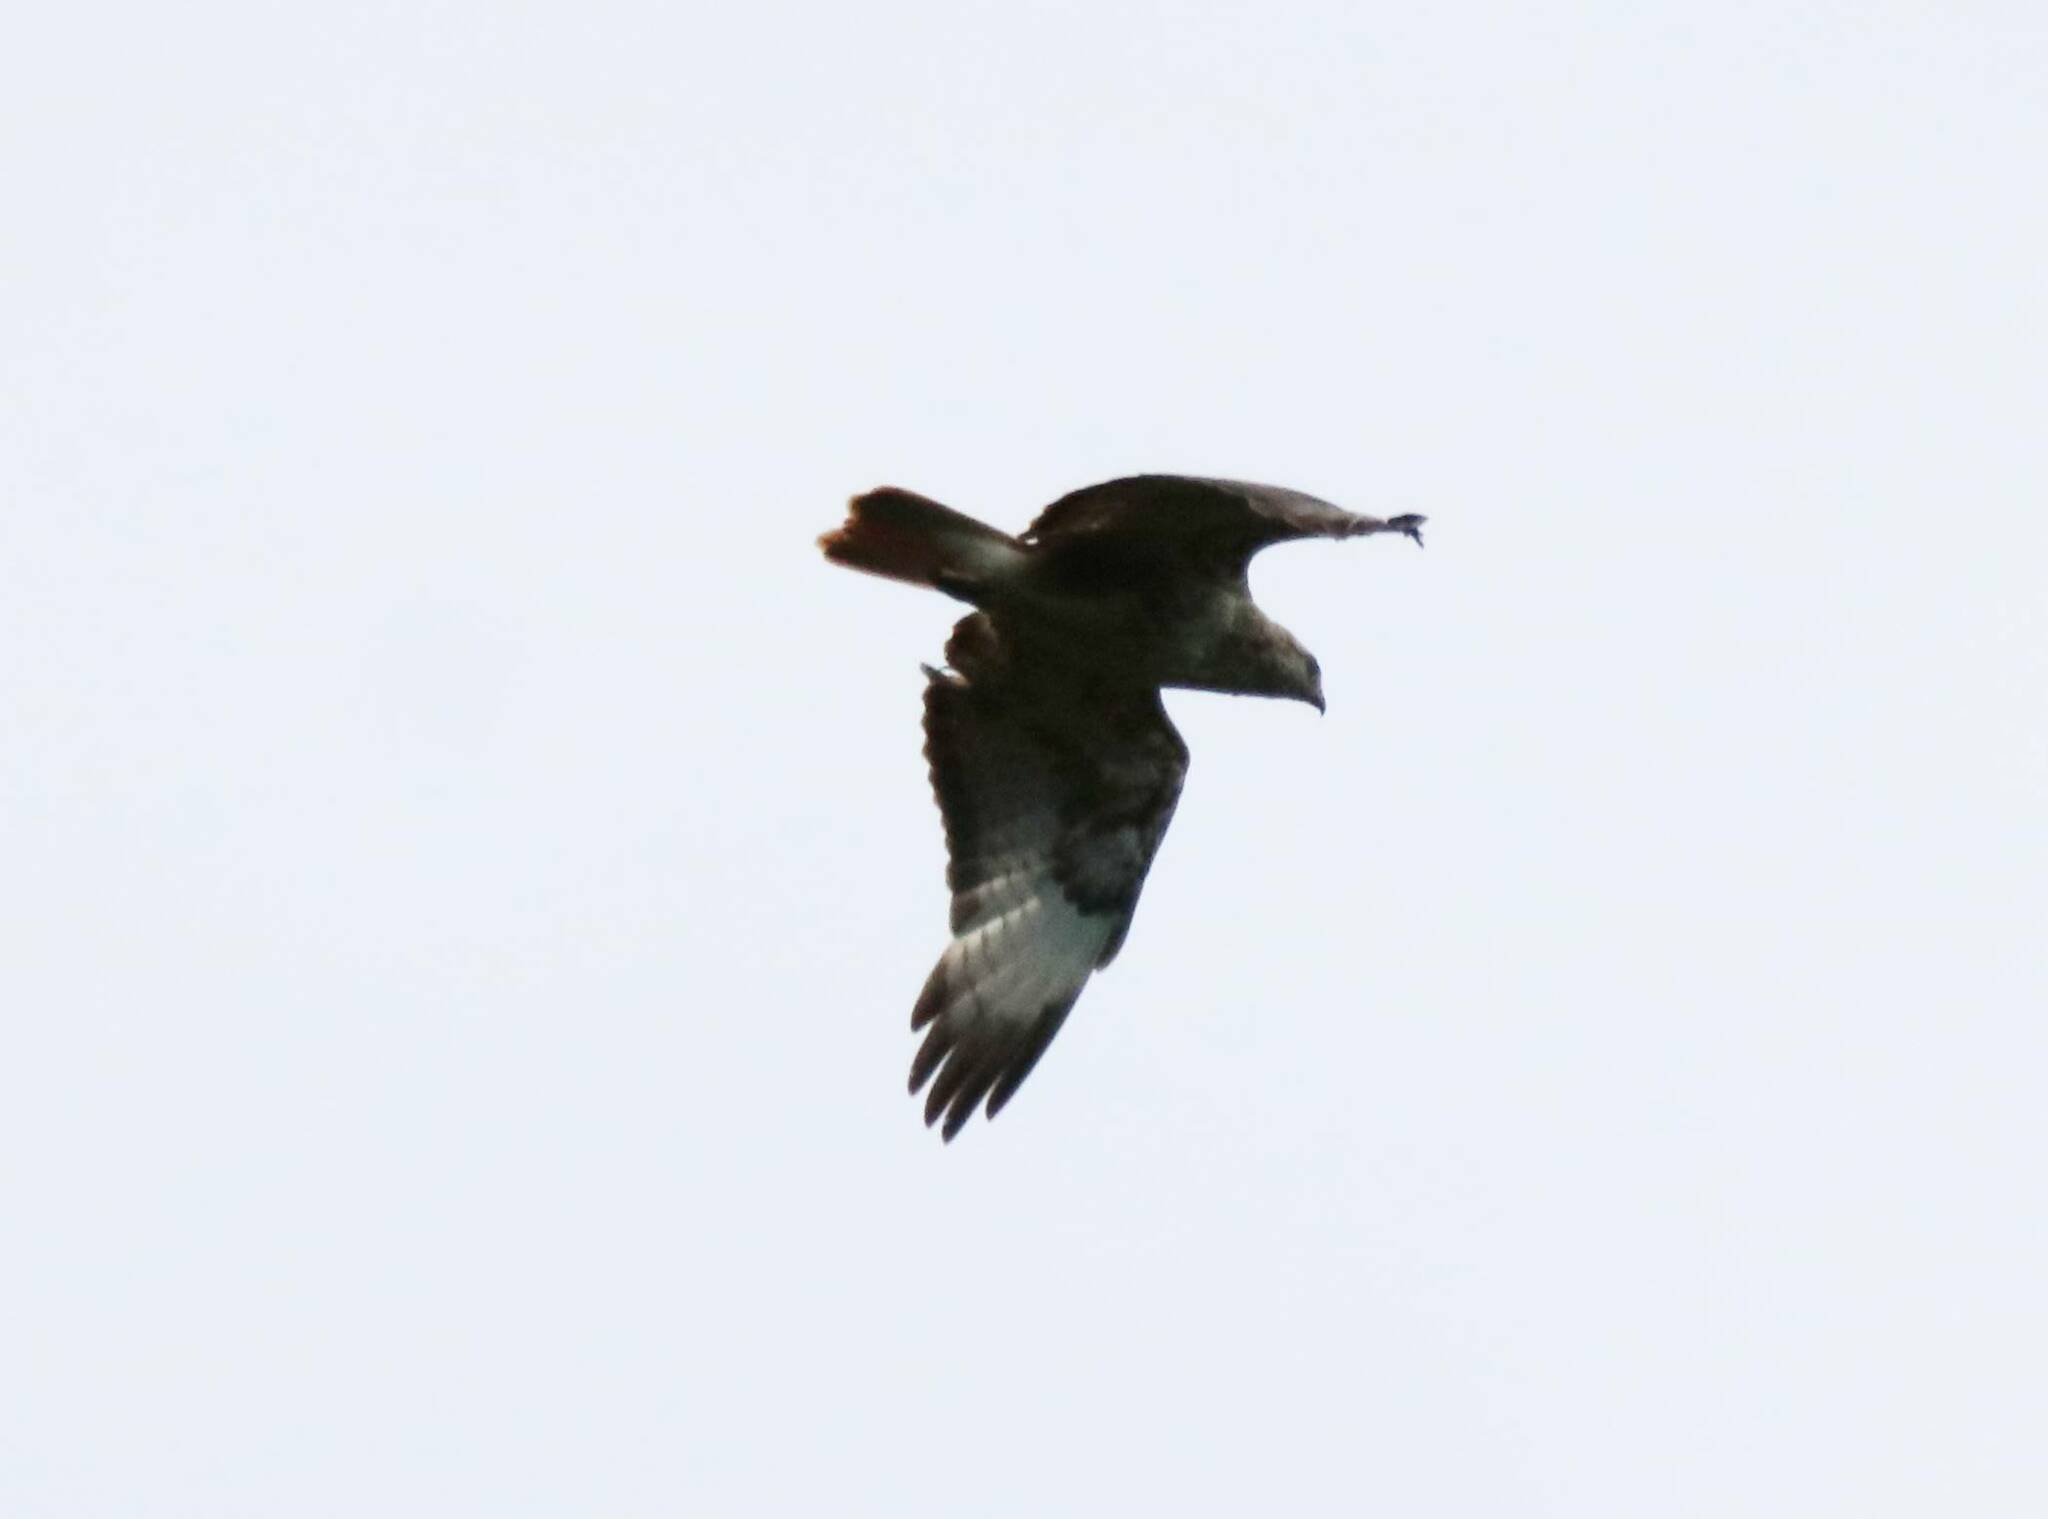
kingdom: Animalia
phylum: Chordata
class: Aves
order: Accipitriformes
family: Accipitridae
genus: Buteo
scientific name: Buteo rufinus
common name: Long-legged buzzard
